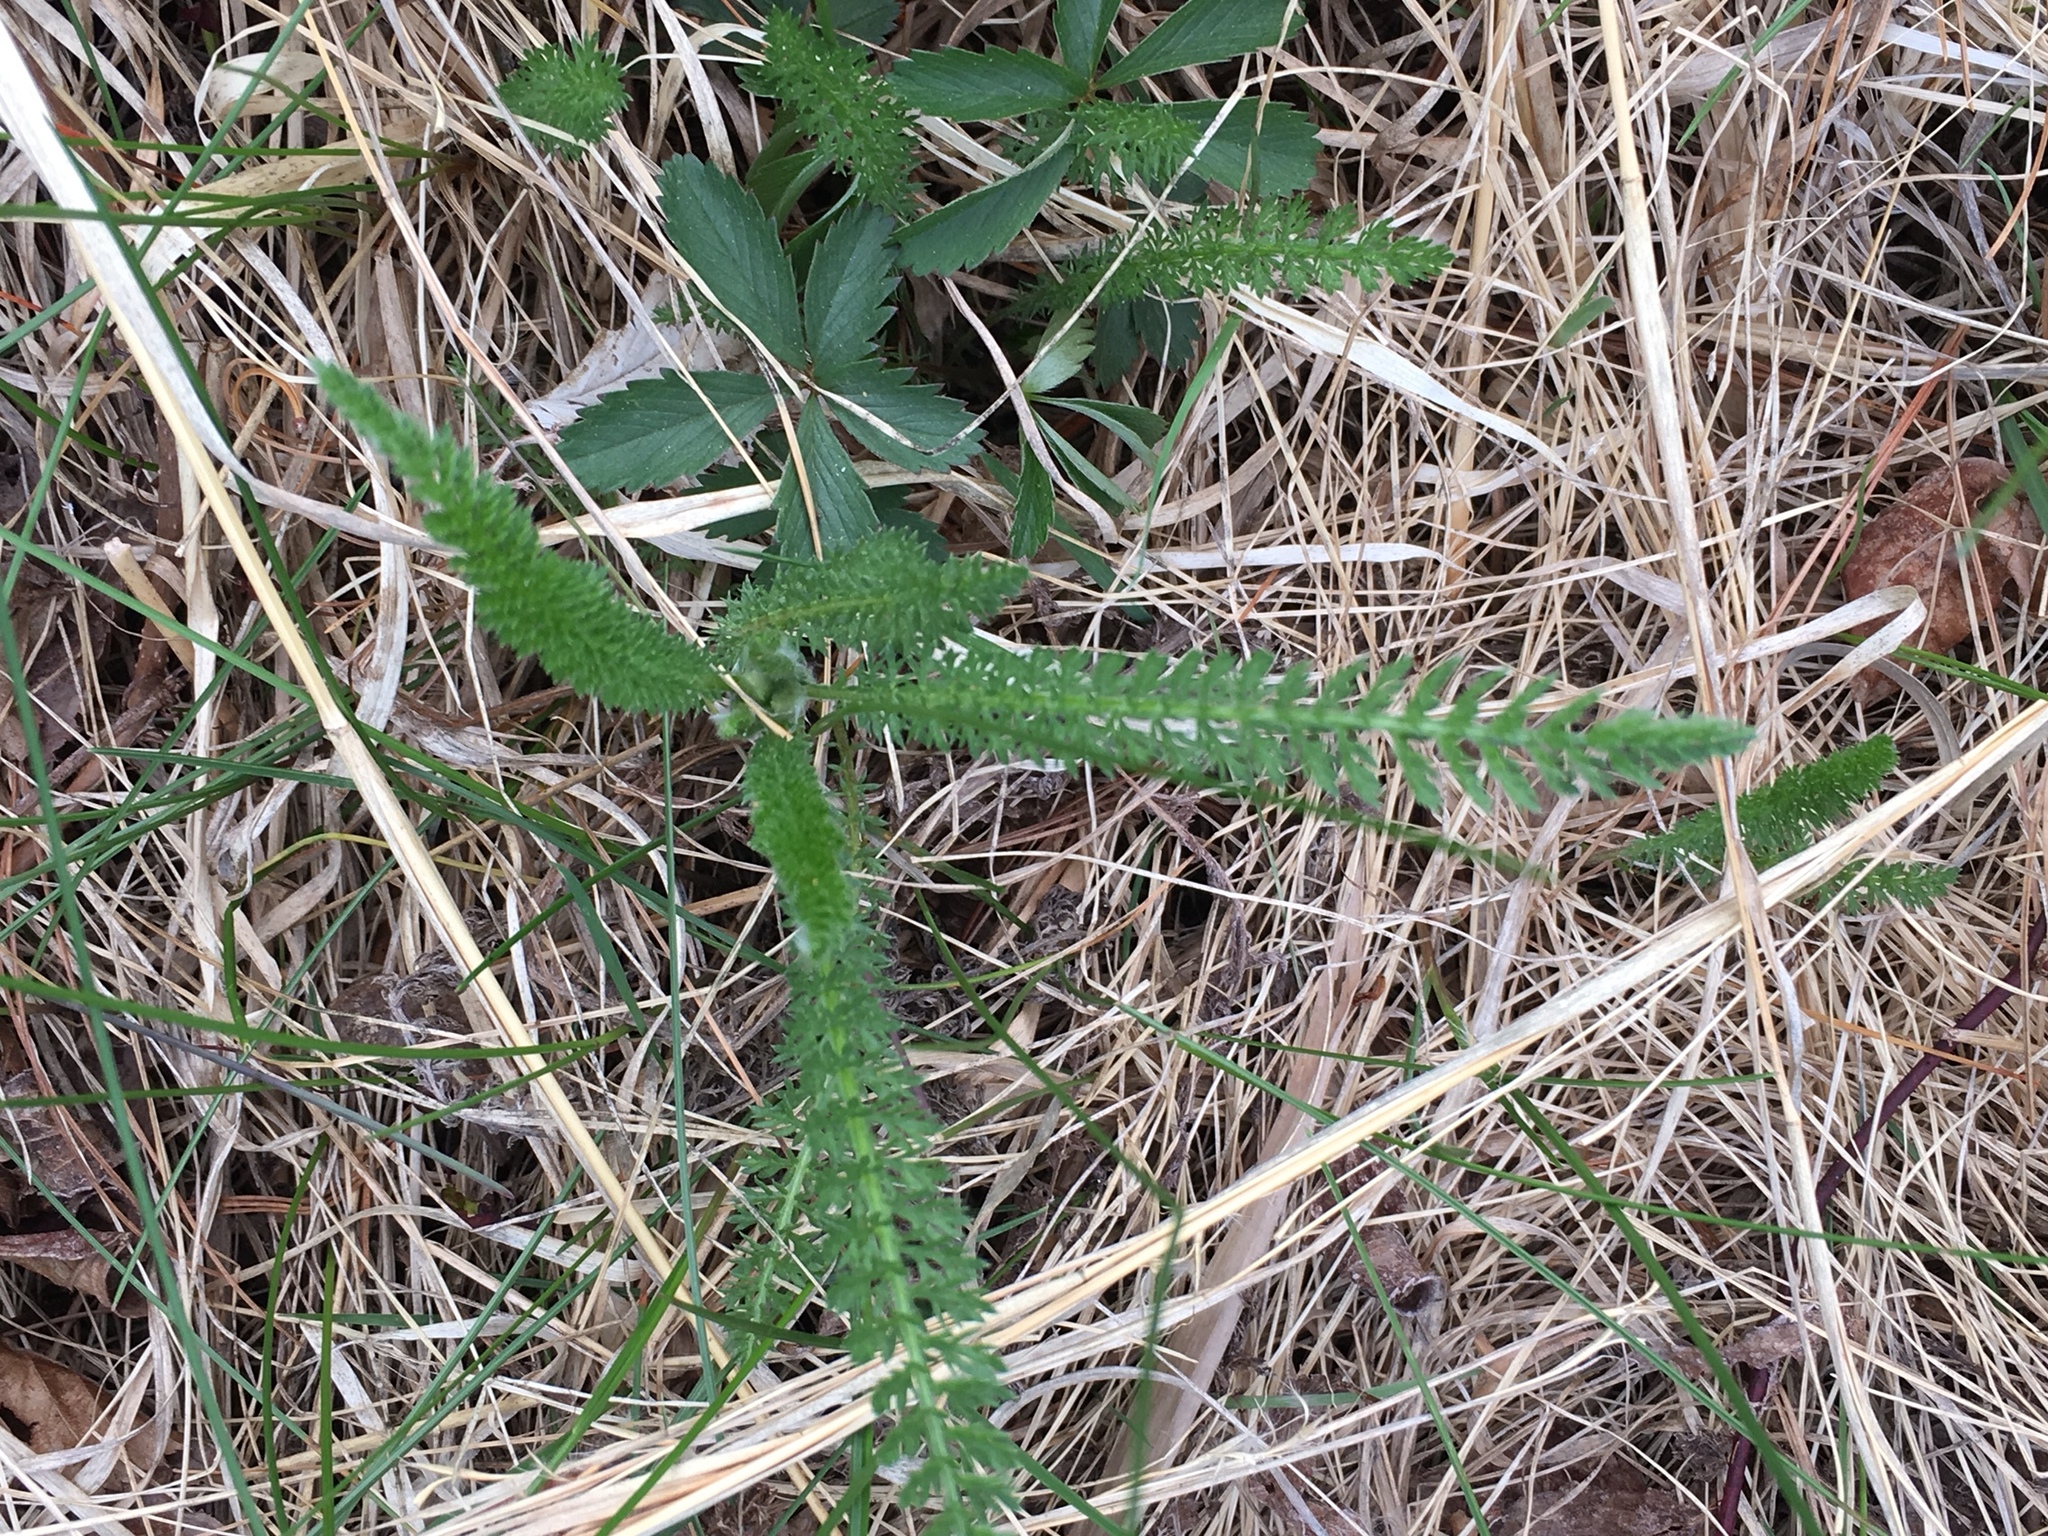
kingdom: Plantae
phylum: Tracheophyta
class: Magnoliopsida
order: Asterales
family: Asteraceae
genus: Achillea
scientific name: Achillea millefolium
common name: Yarrow
